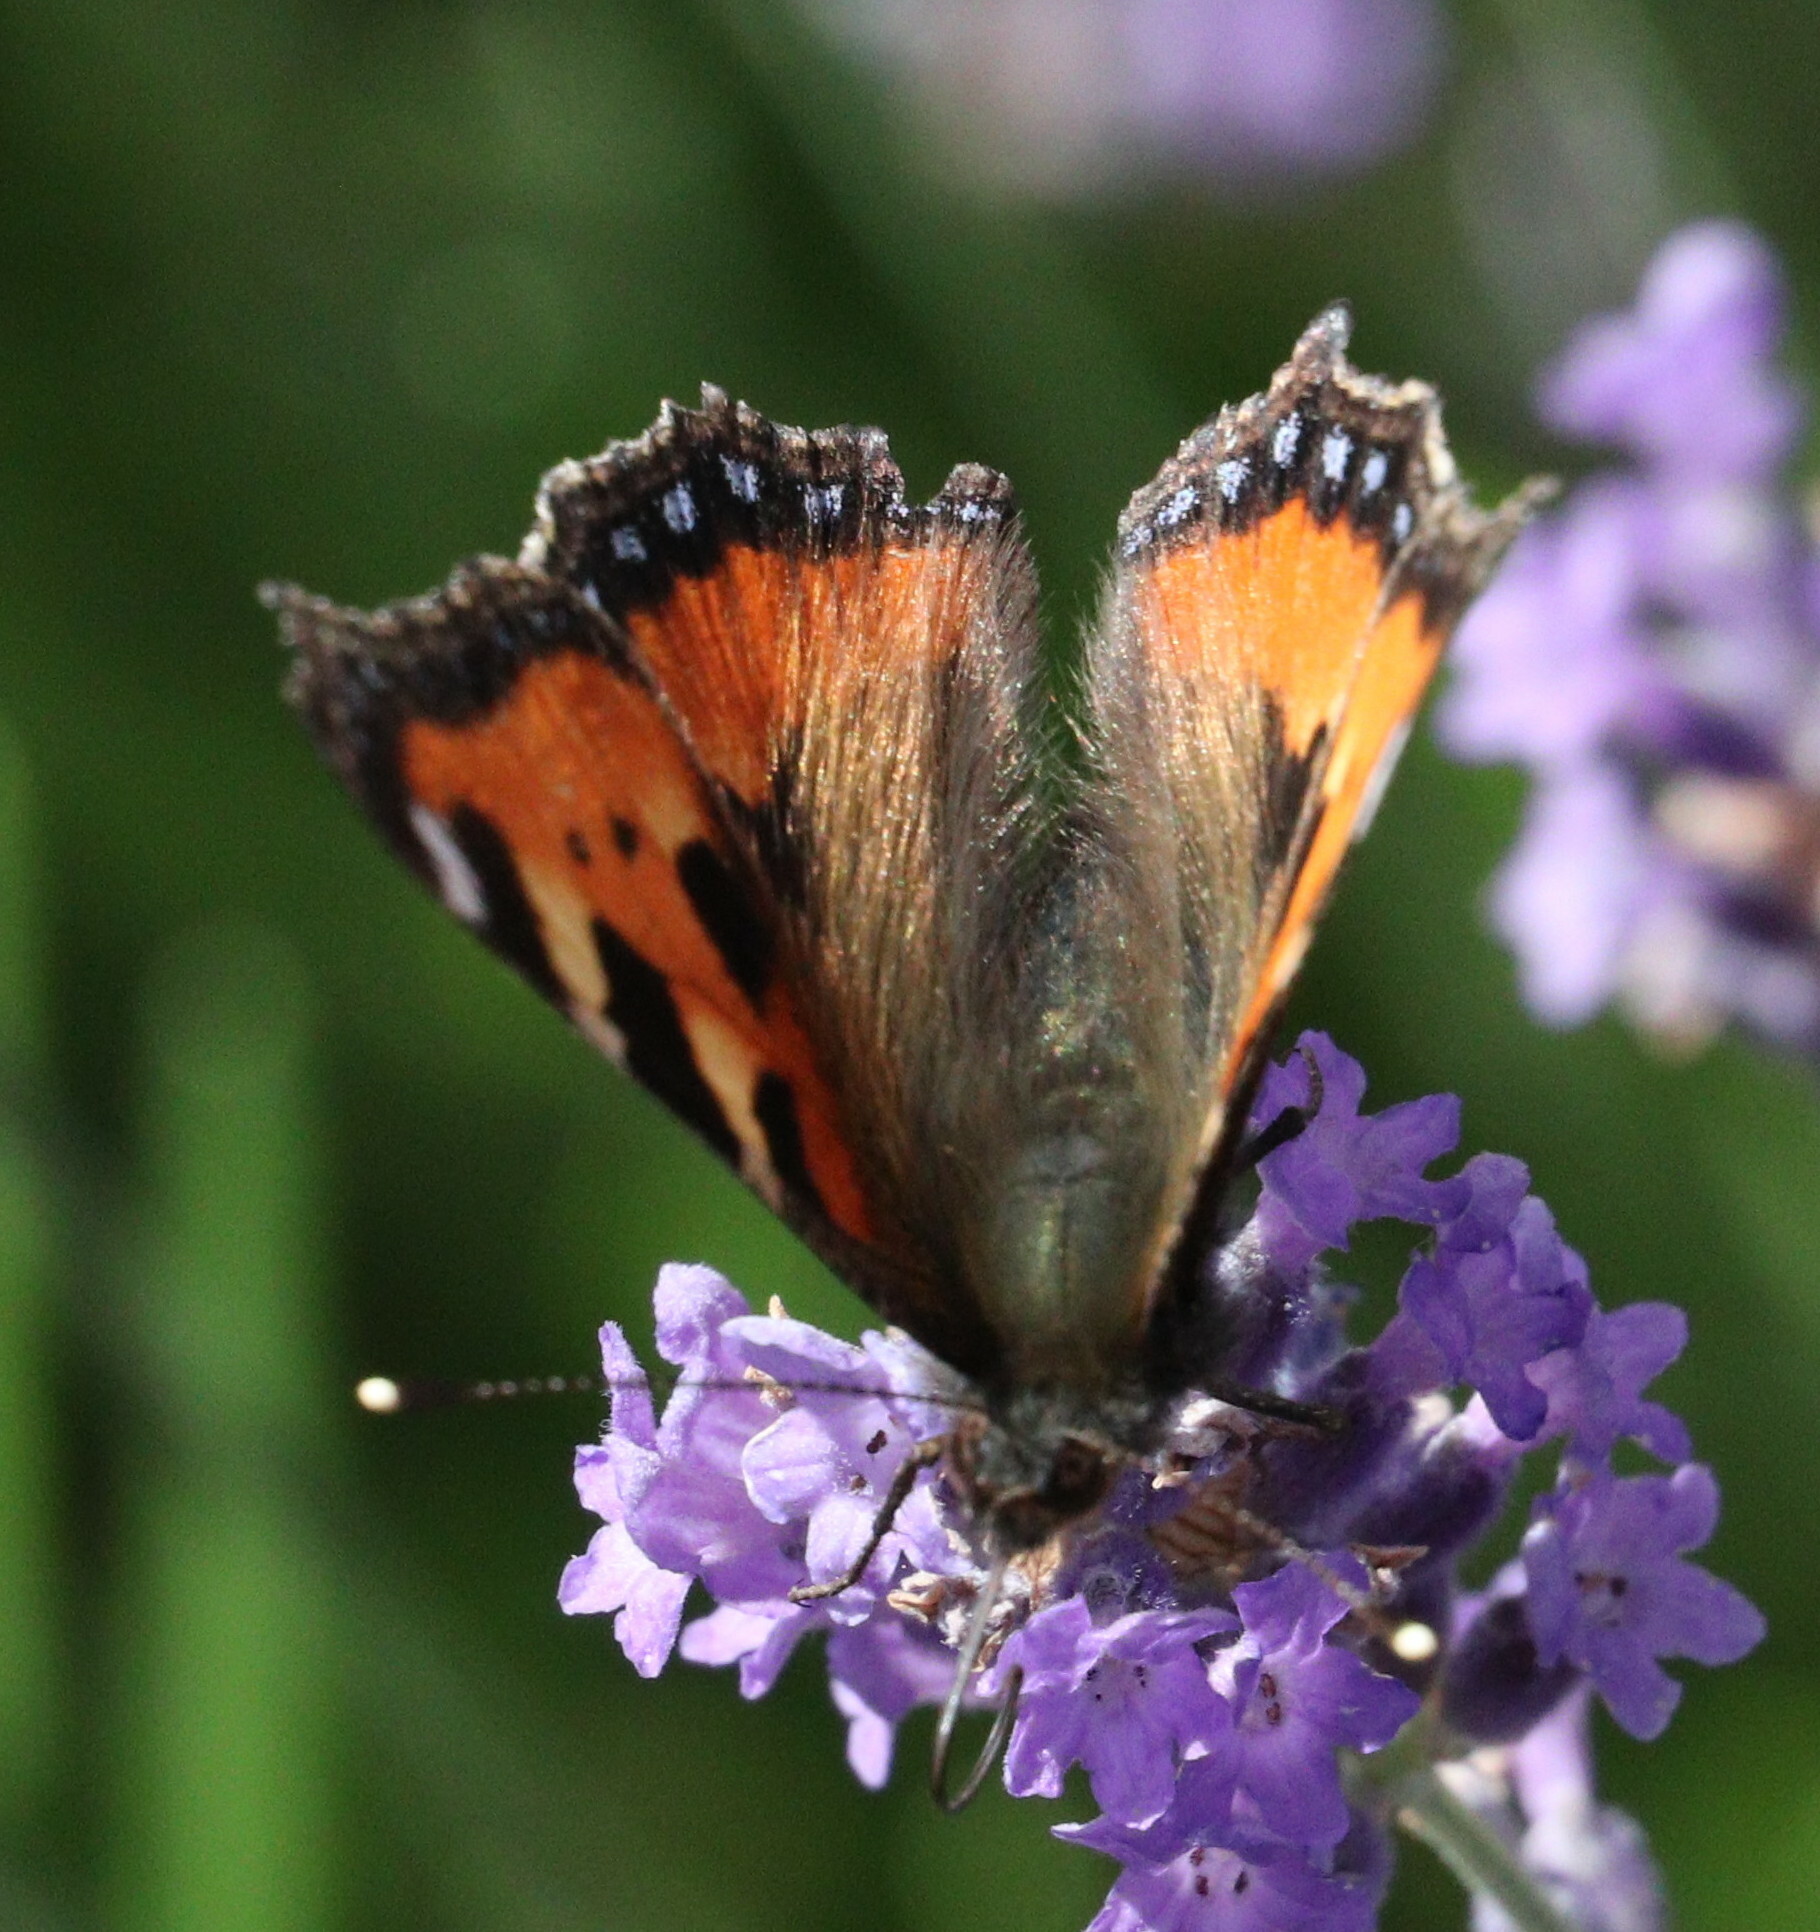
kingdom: Animalia
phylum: Arthropoda
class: Insecta
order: Lepidoptera
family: Nymphalidae
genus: Aglais
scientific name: Aglais urticae
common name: Small tortoiseshell
